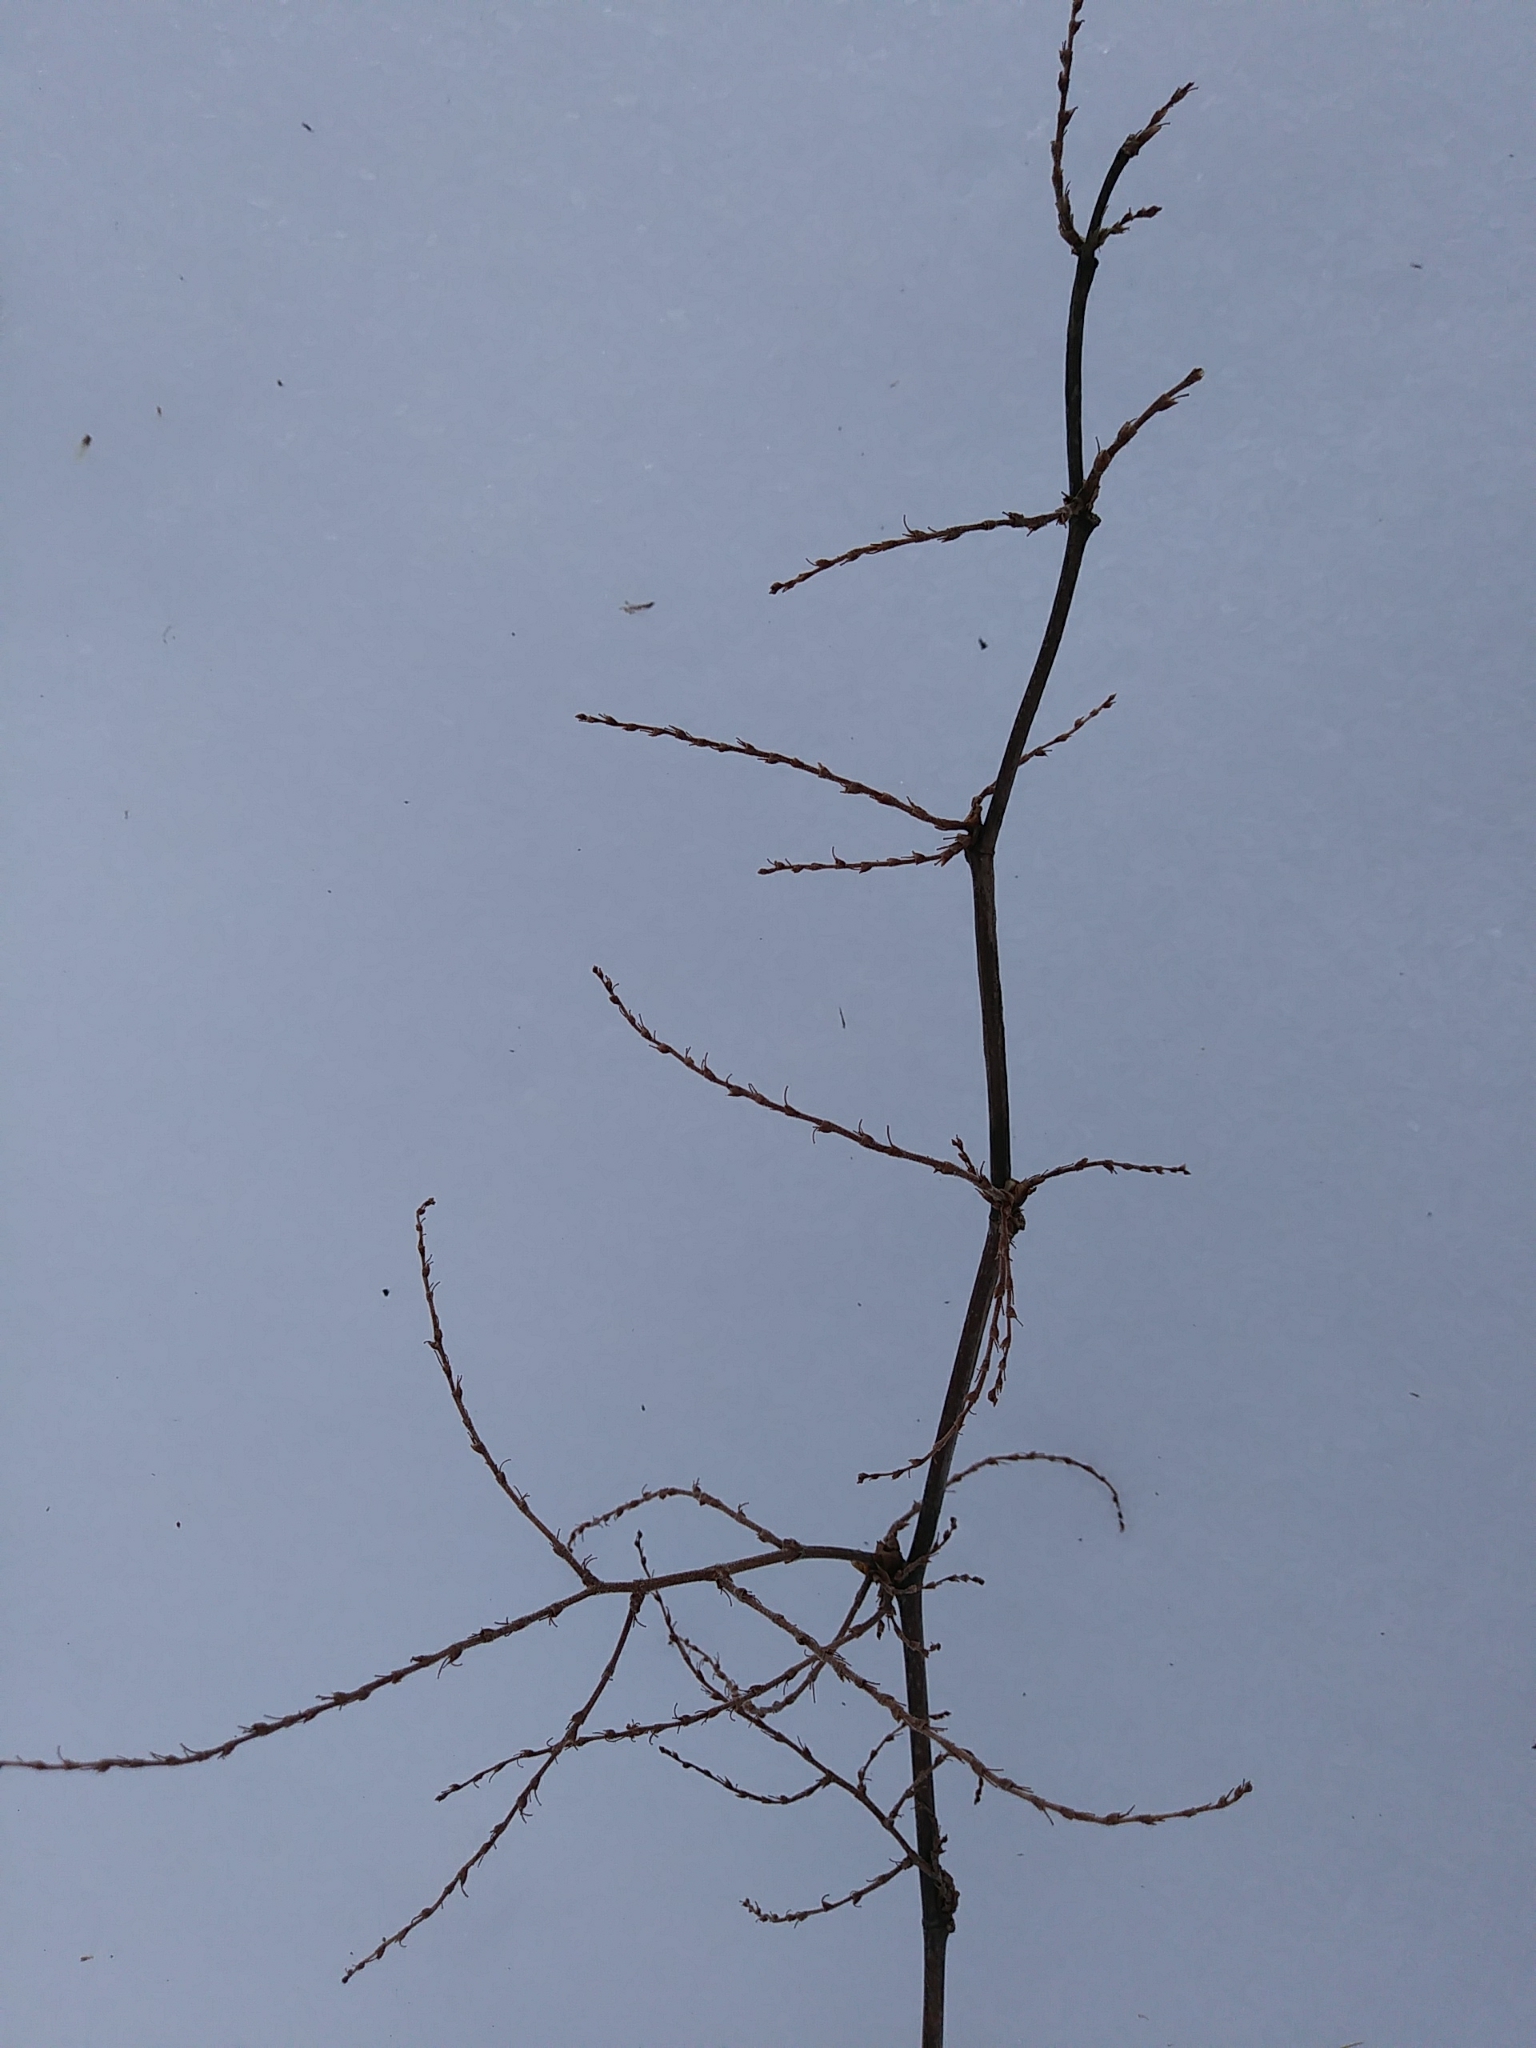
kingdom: Plantae
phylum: Tracheophyta
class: Magnoliopsida
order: Caryophyllales
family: Polygonaceae
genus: Reynoutria
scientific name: Reynoutria japonica
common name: Japanese knotweed
